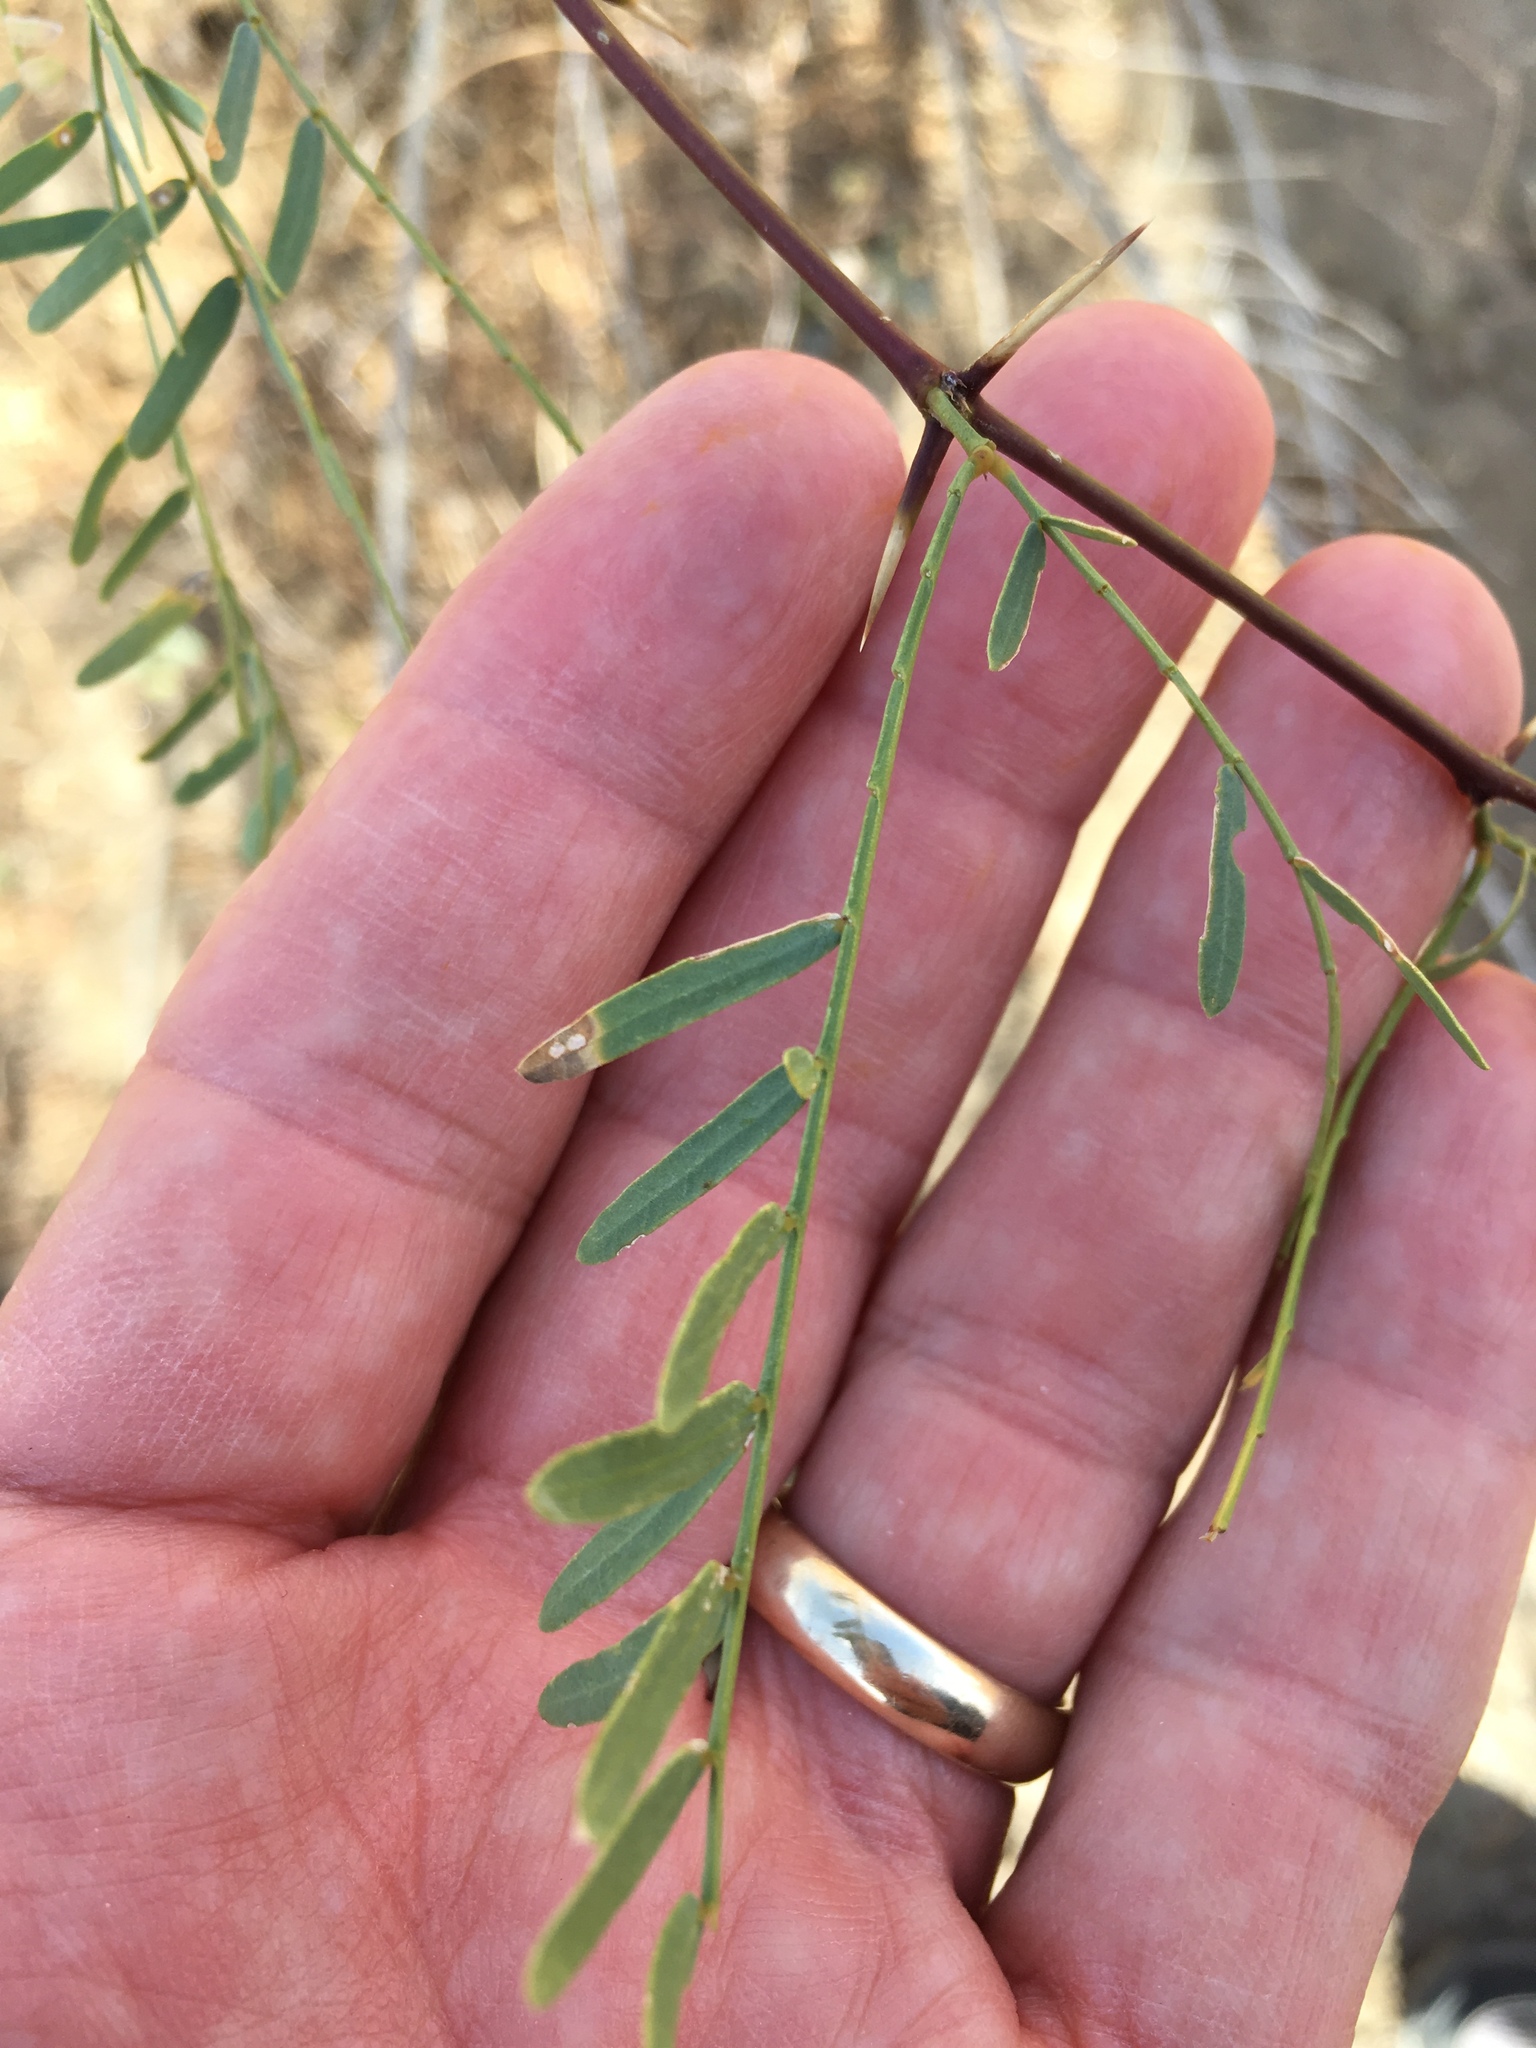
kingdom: Plantae
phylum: Tracheophyta
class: Magnoliopsida
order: Fabales
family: Fabaceae
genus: Prosopis
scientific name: Prosopis pubescens
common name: Screw-bean
